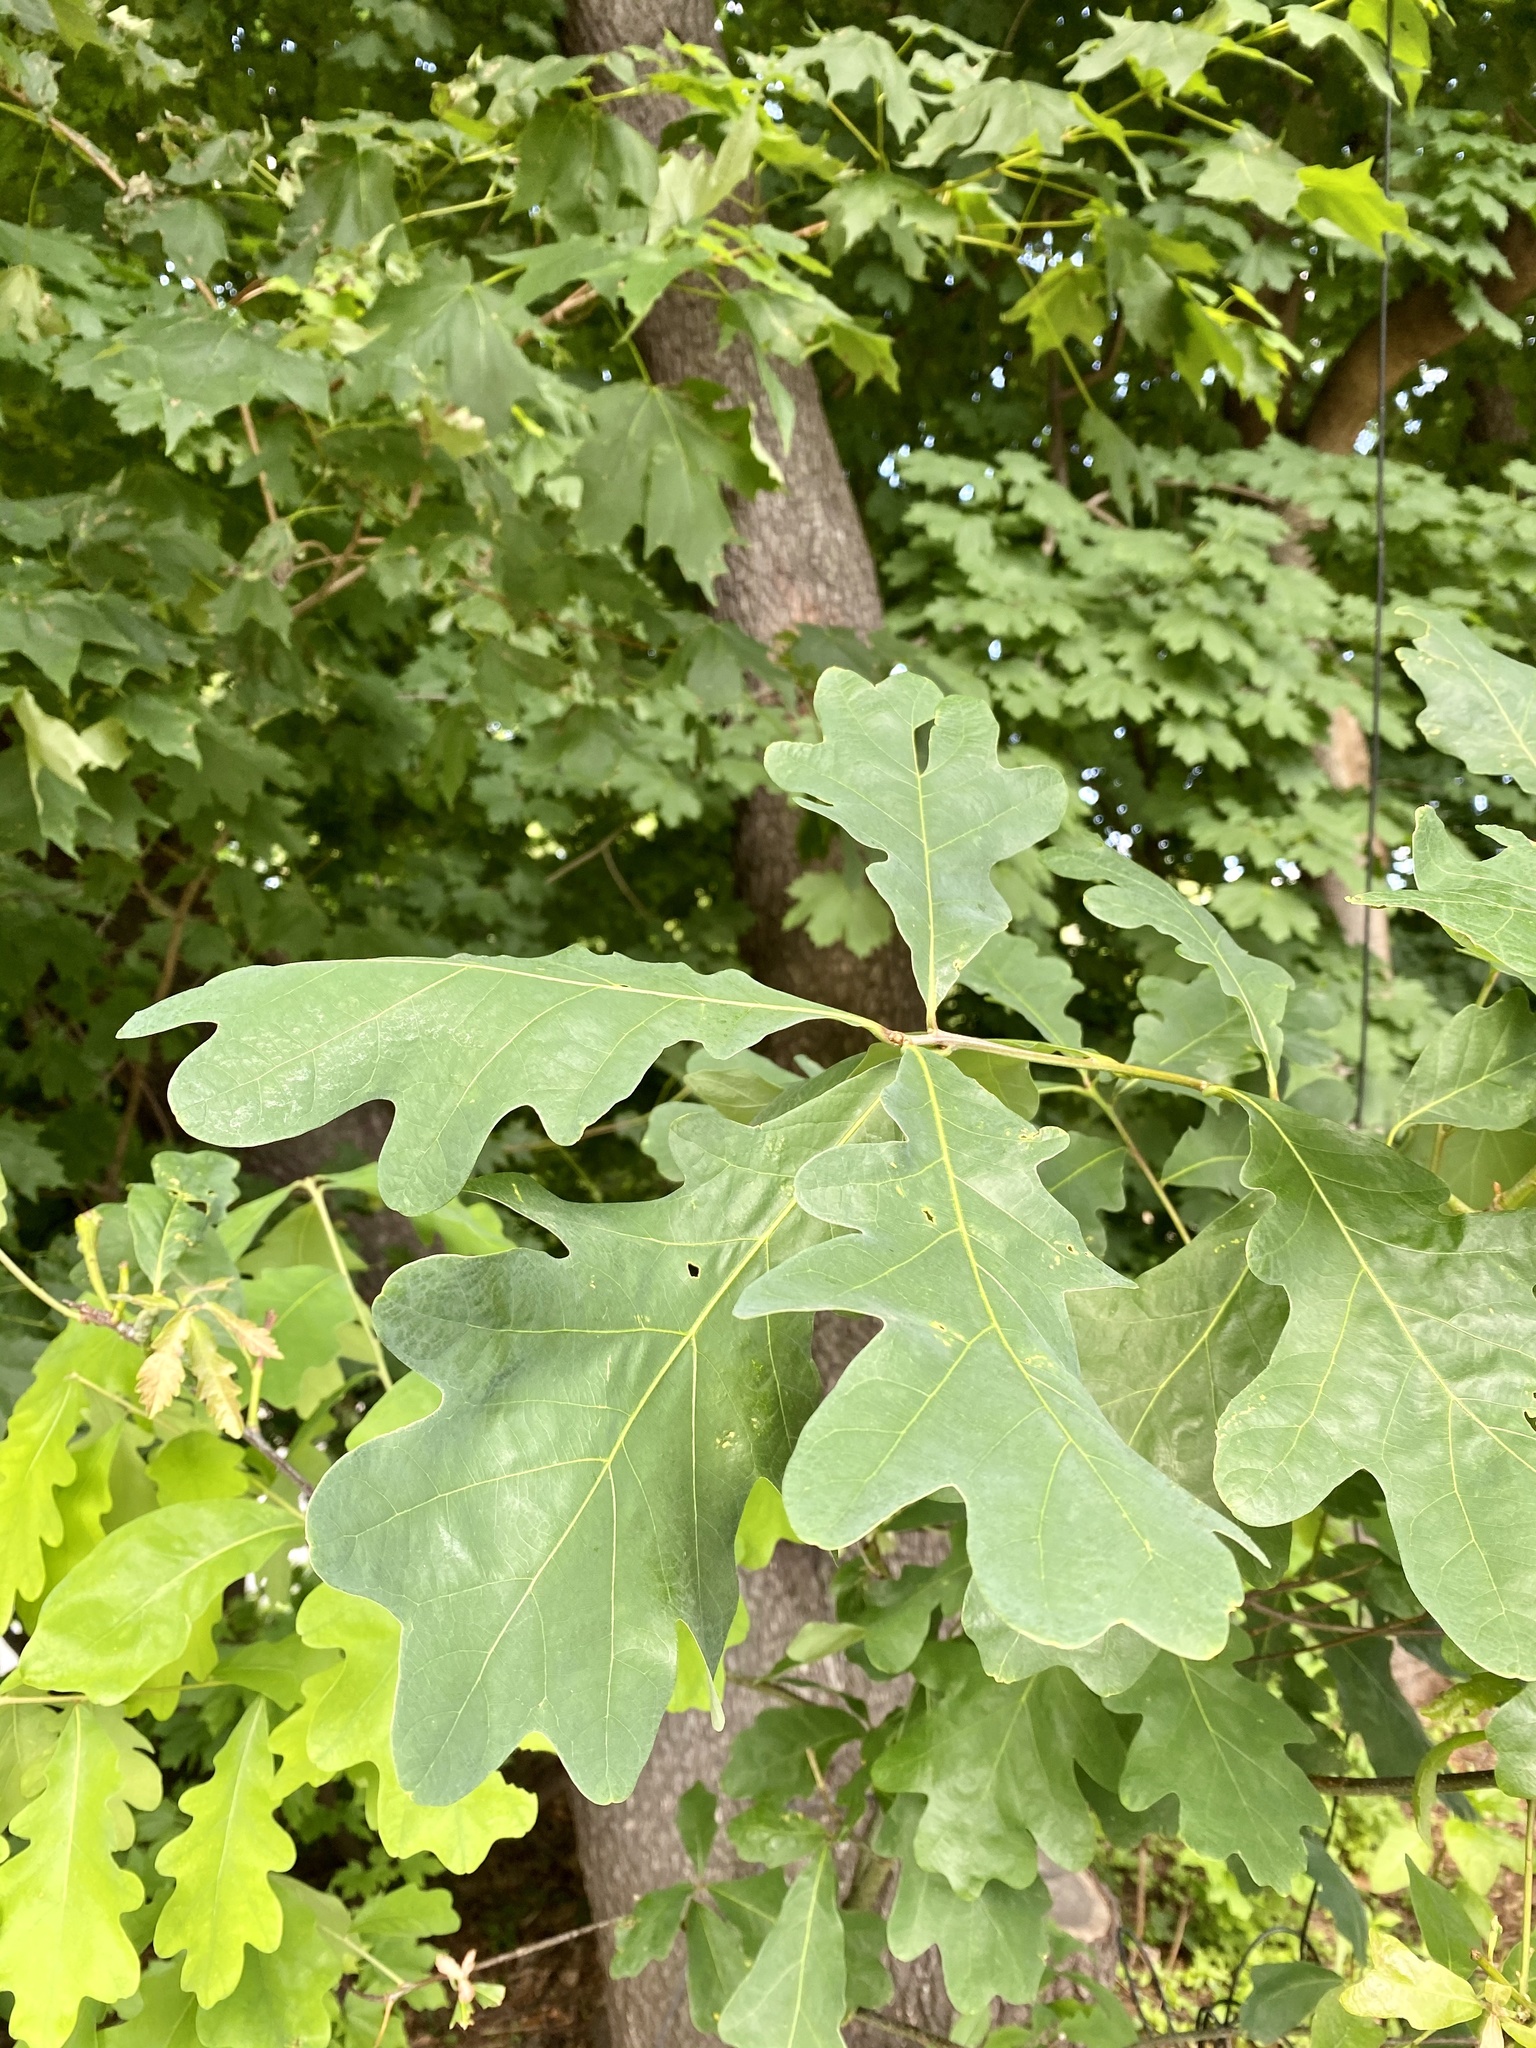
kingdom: Plantae
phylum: Tracheophyta
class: Magnoliopsida
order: Fagales
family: Fagaceae
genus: Quercus
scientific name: Quercus alba
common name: White oak
